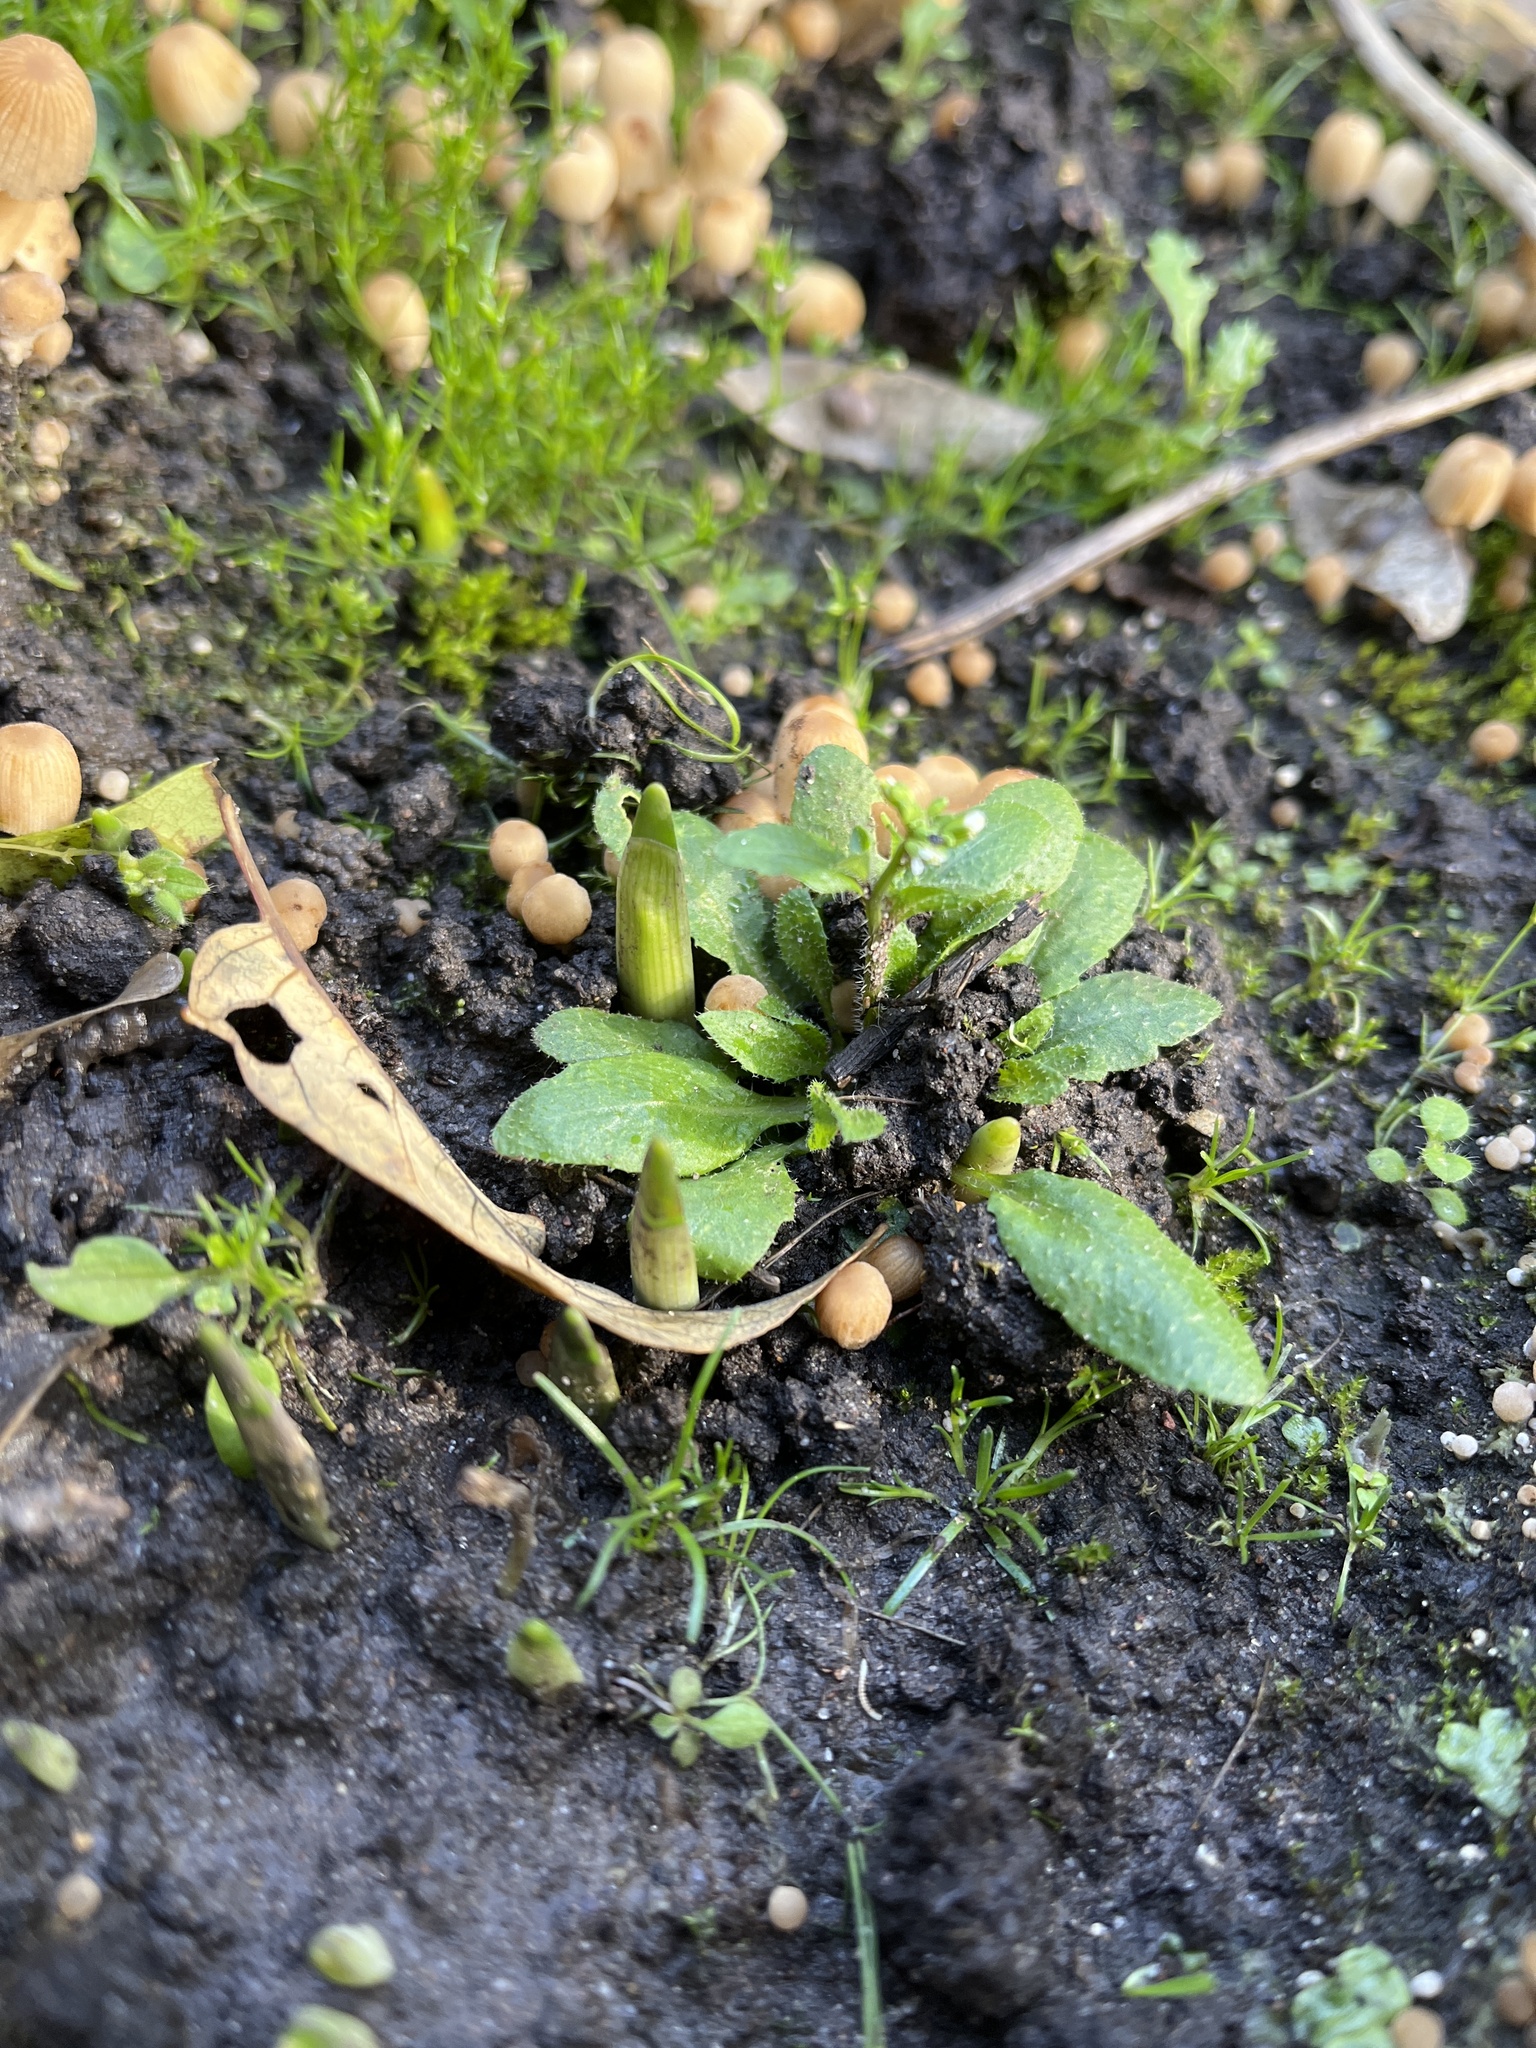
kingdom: Plantae
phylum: Tracheophyta
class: Magnoliopsida
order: Brassicales
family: Brassicaceae
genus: Arabidopsis
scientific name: Arabidopsis thaliana
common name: Thale cress
